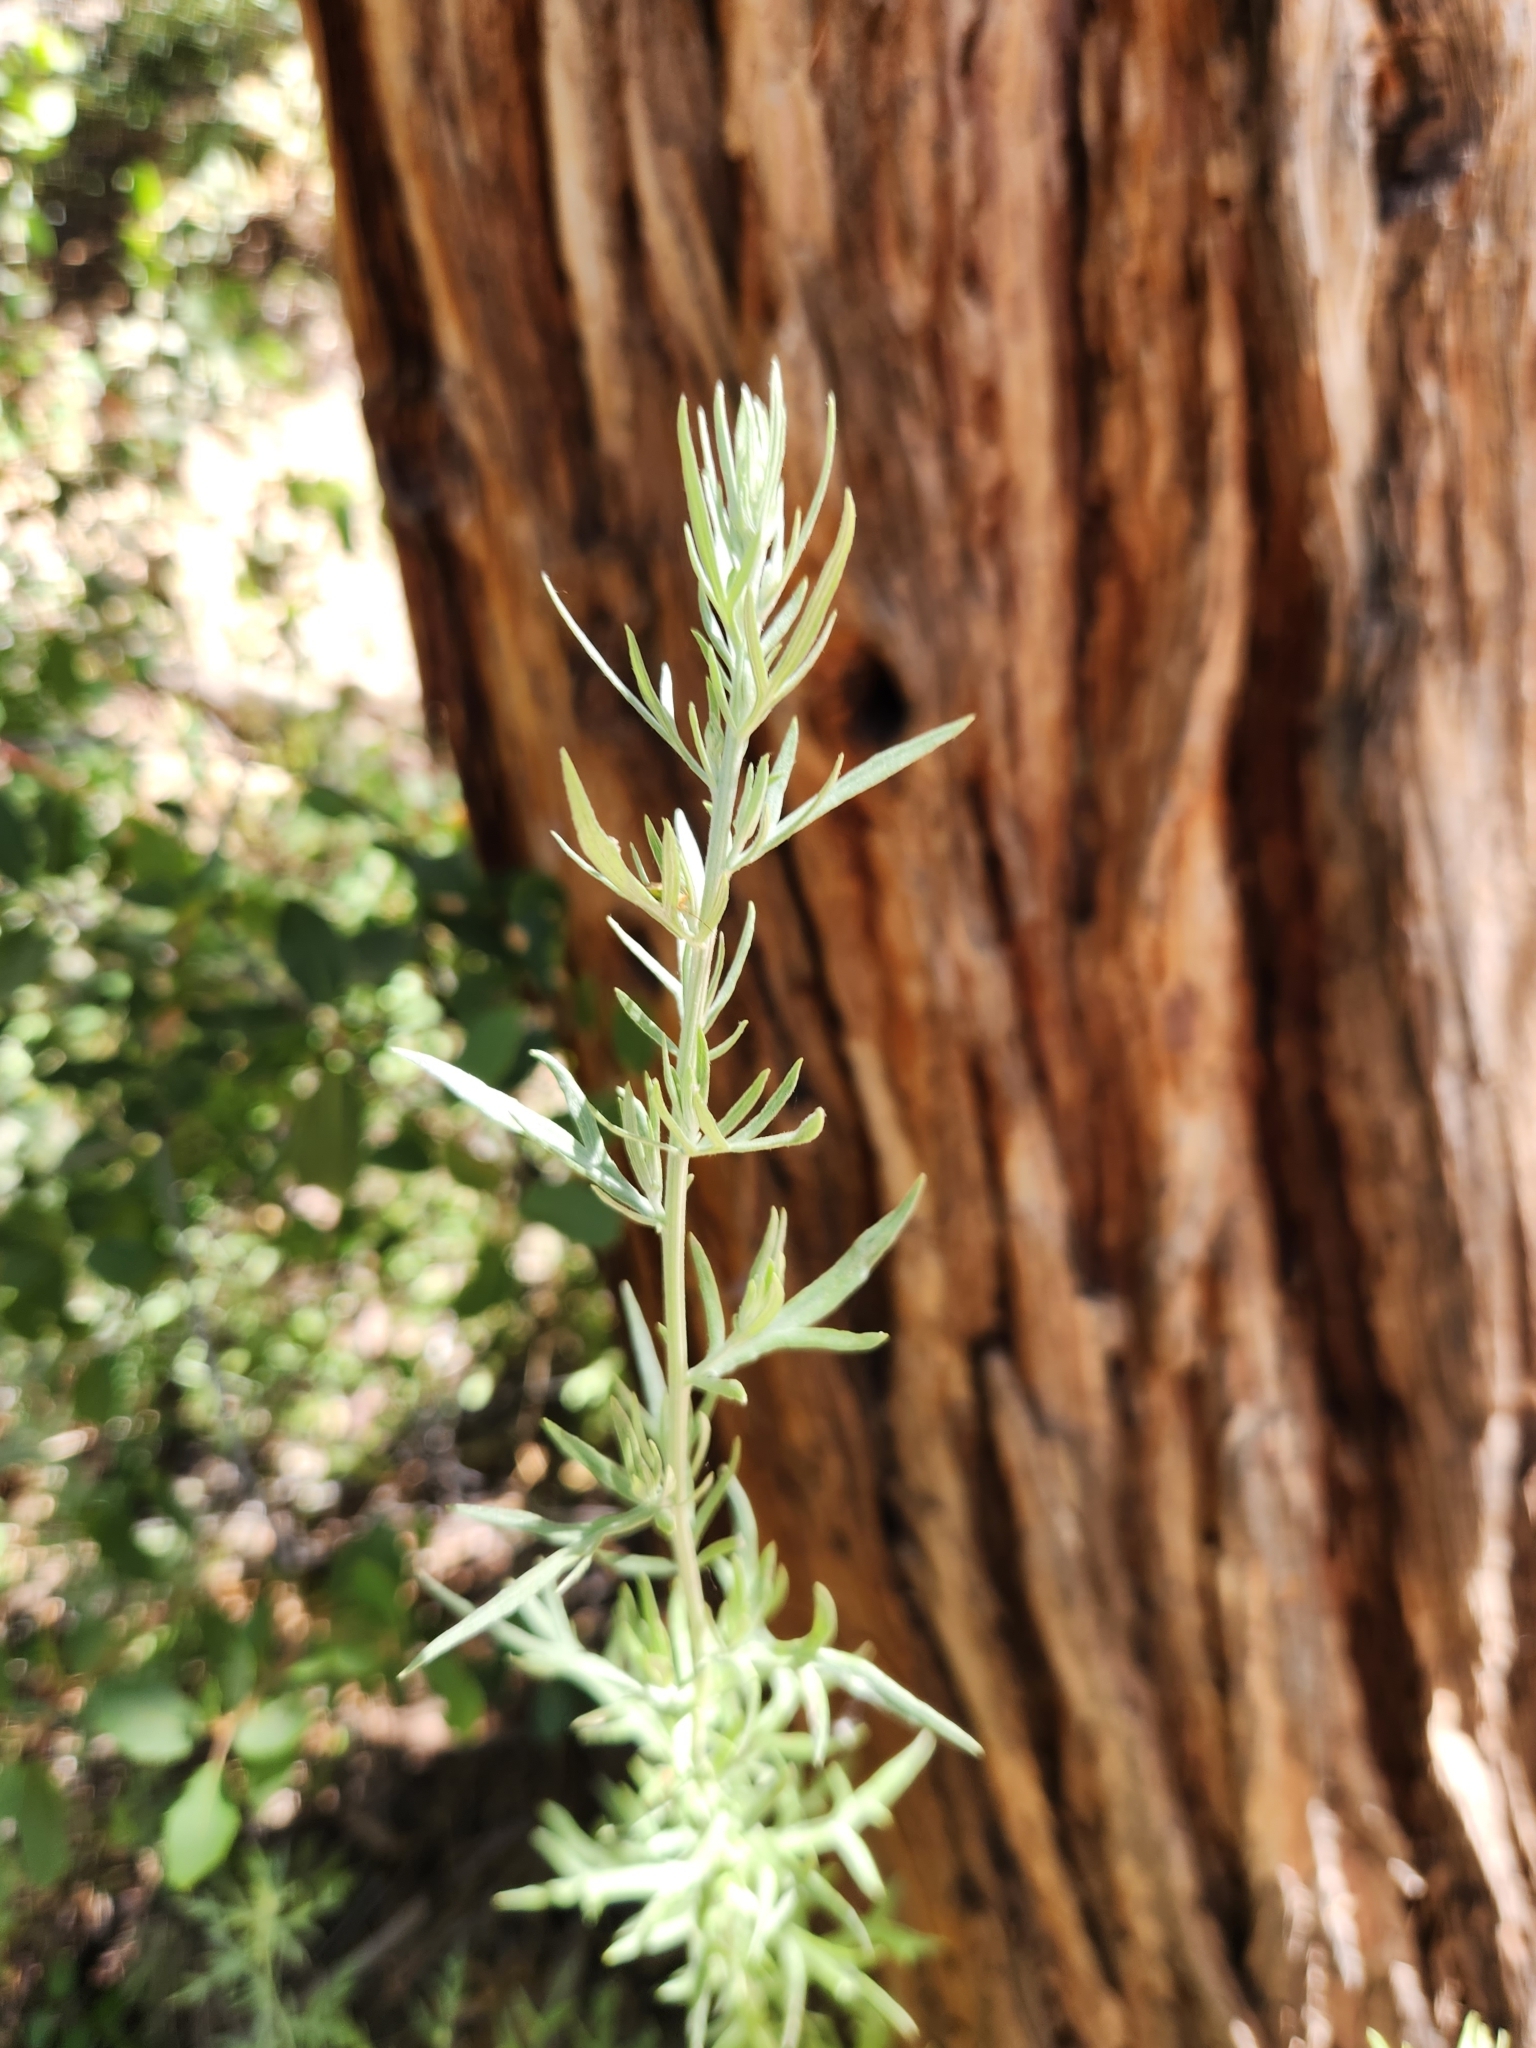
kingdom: Plantae
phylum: Tracheophyta
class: Magnoliopsida
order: Asterales
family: Asteraceae
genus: Artemisia
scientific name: Artemisia ludoviciana
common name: Western mugwort
